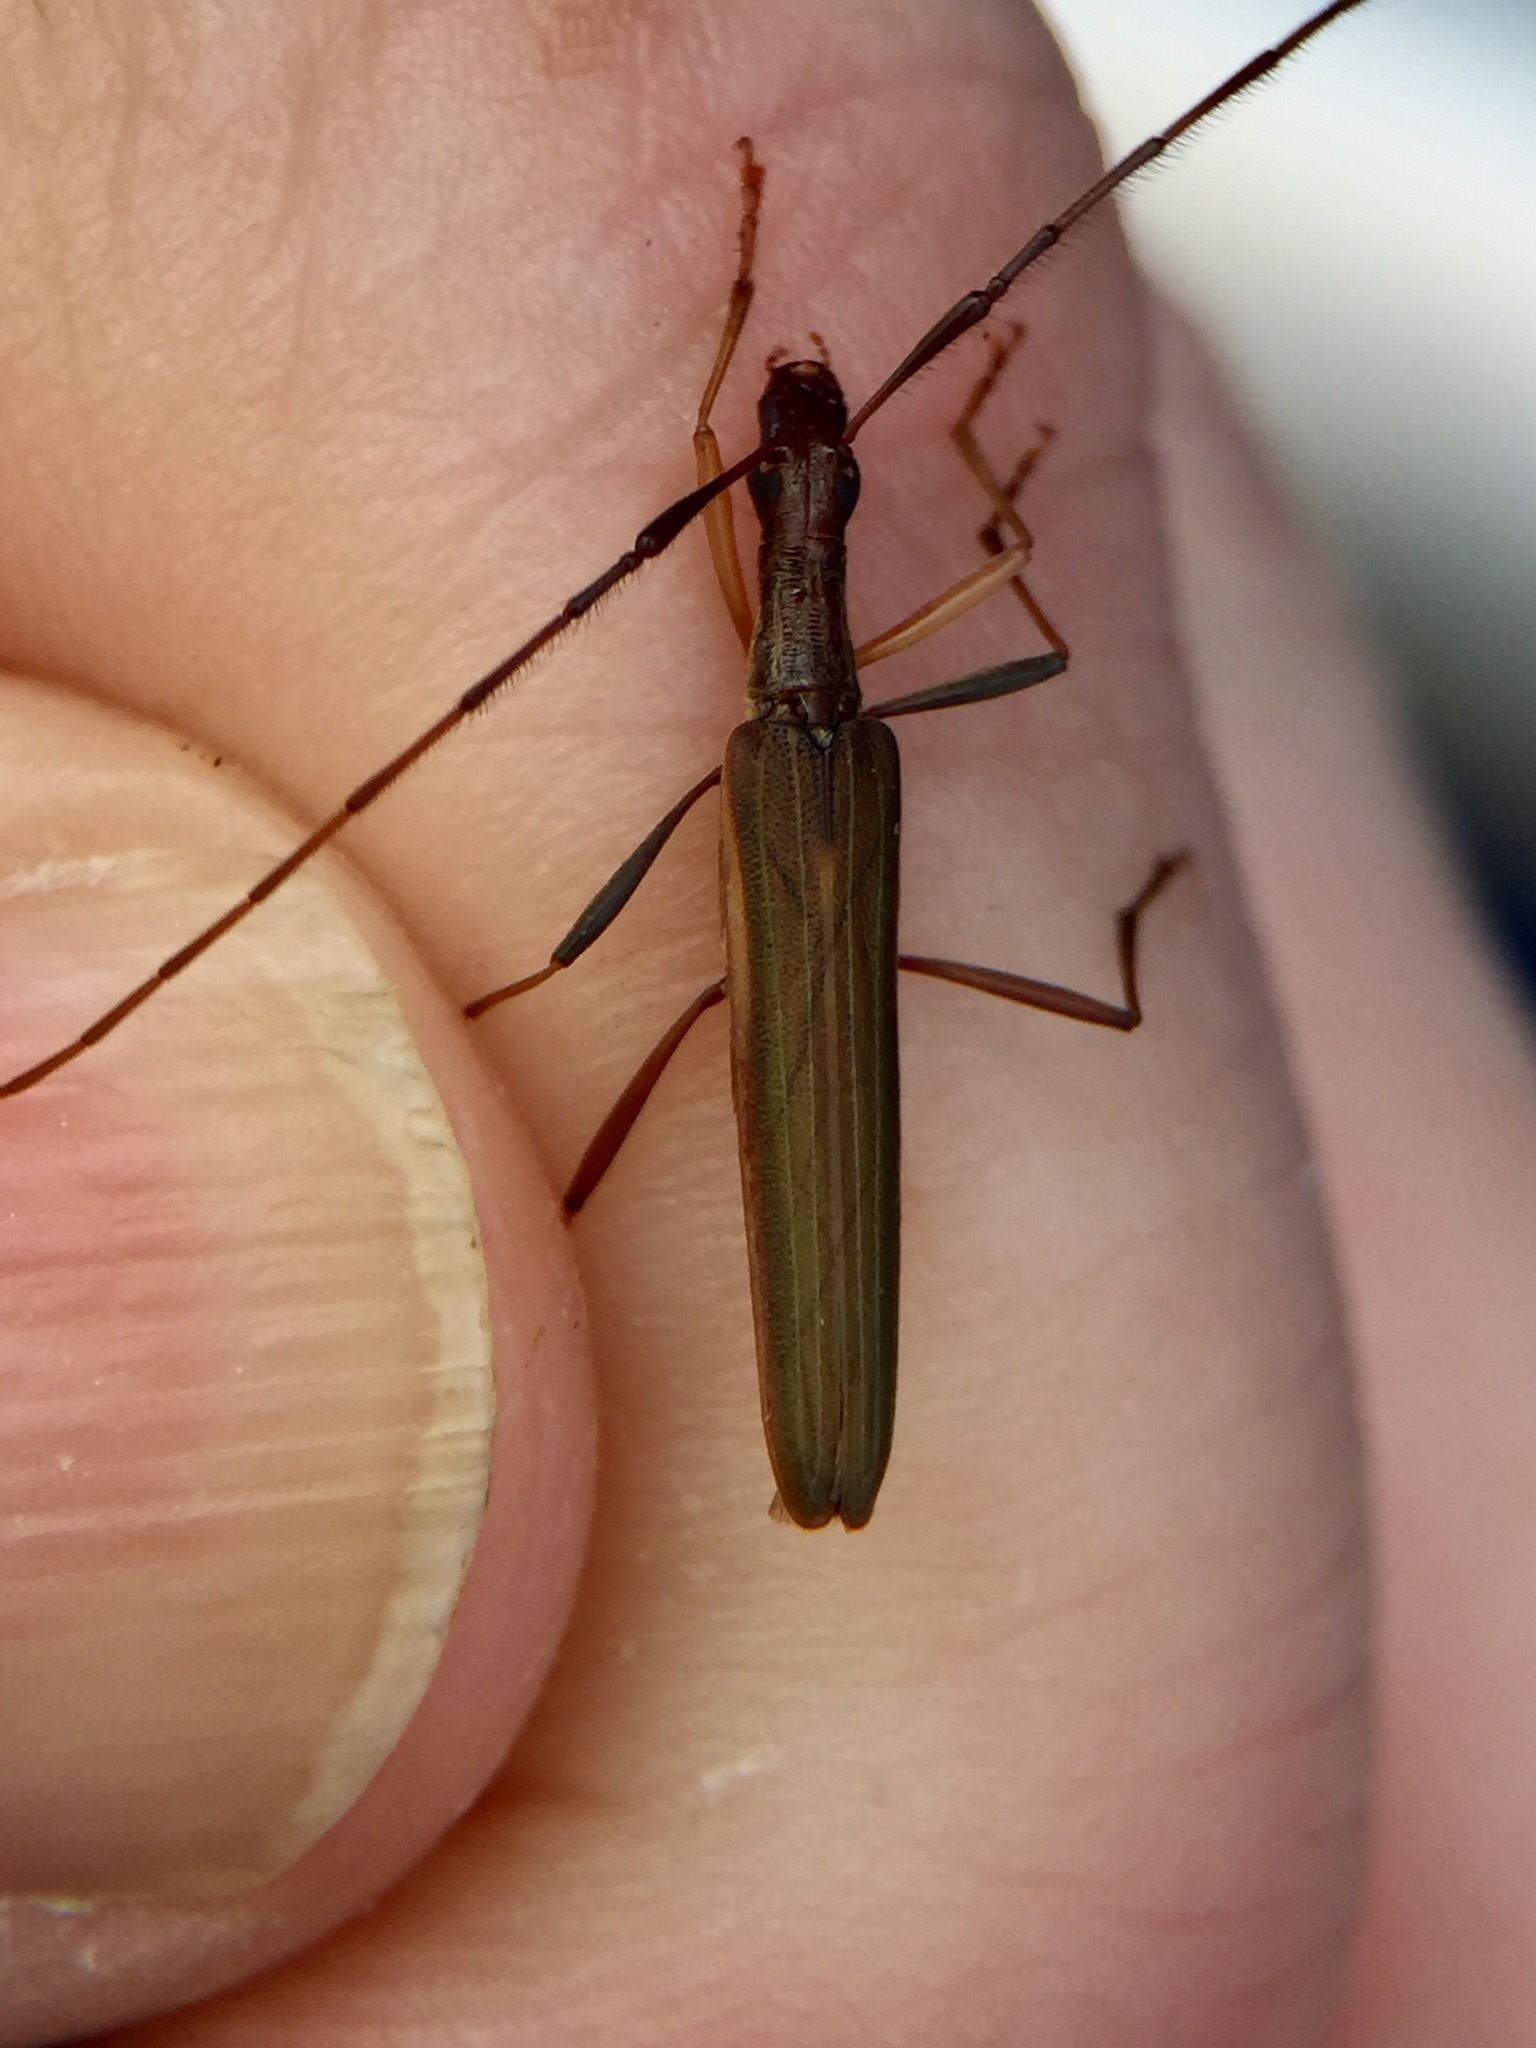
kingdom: Animalia
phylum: Arthropoda
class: Insecta
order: Coleoptera
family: Cerambycidae
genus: Stenopotes
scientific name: Stenopotes pallidus
